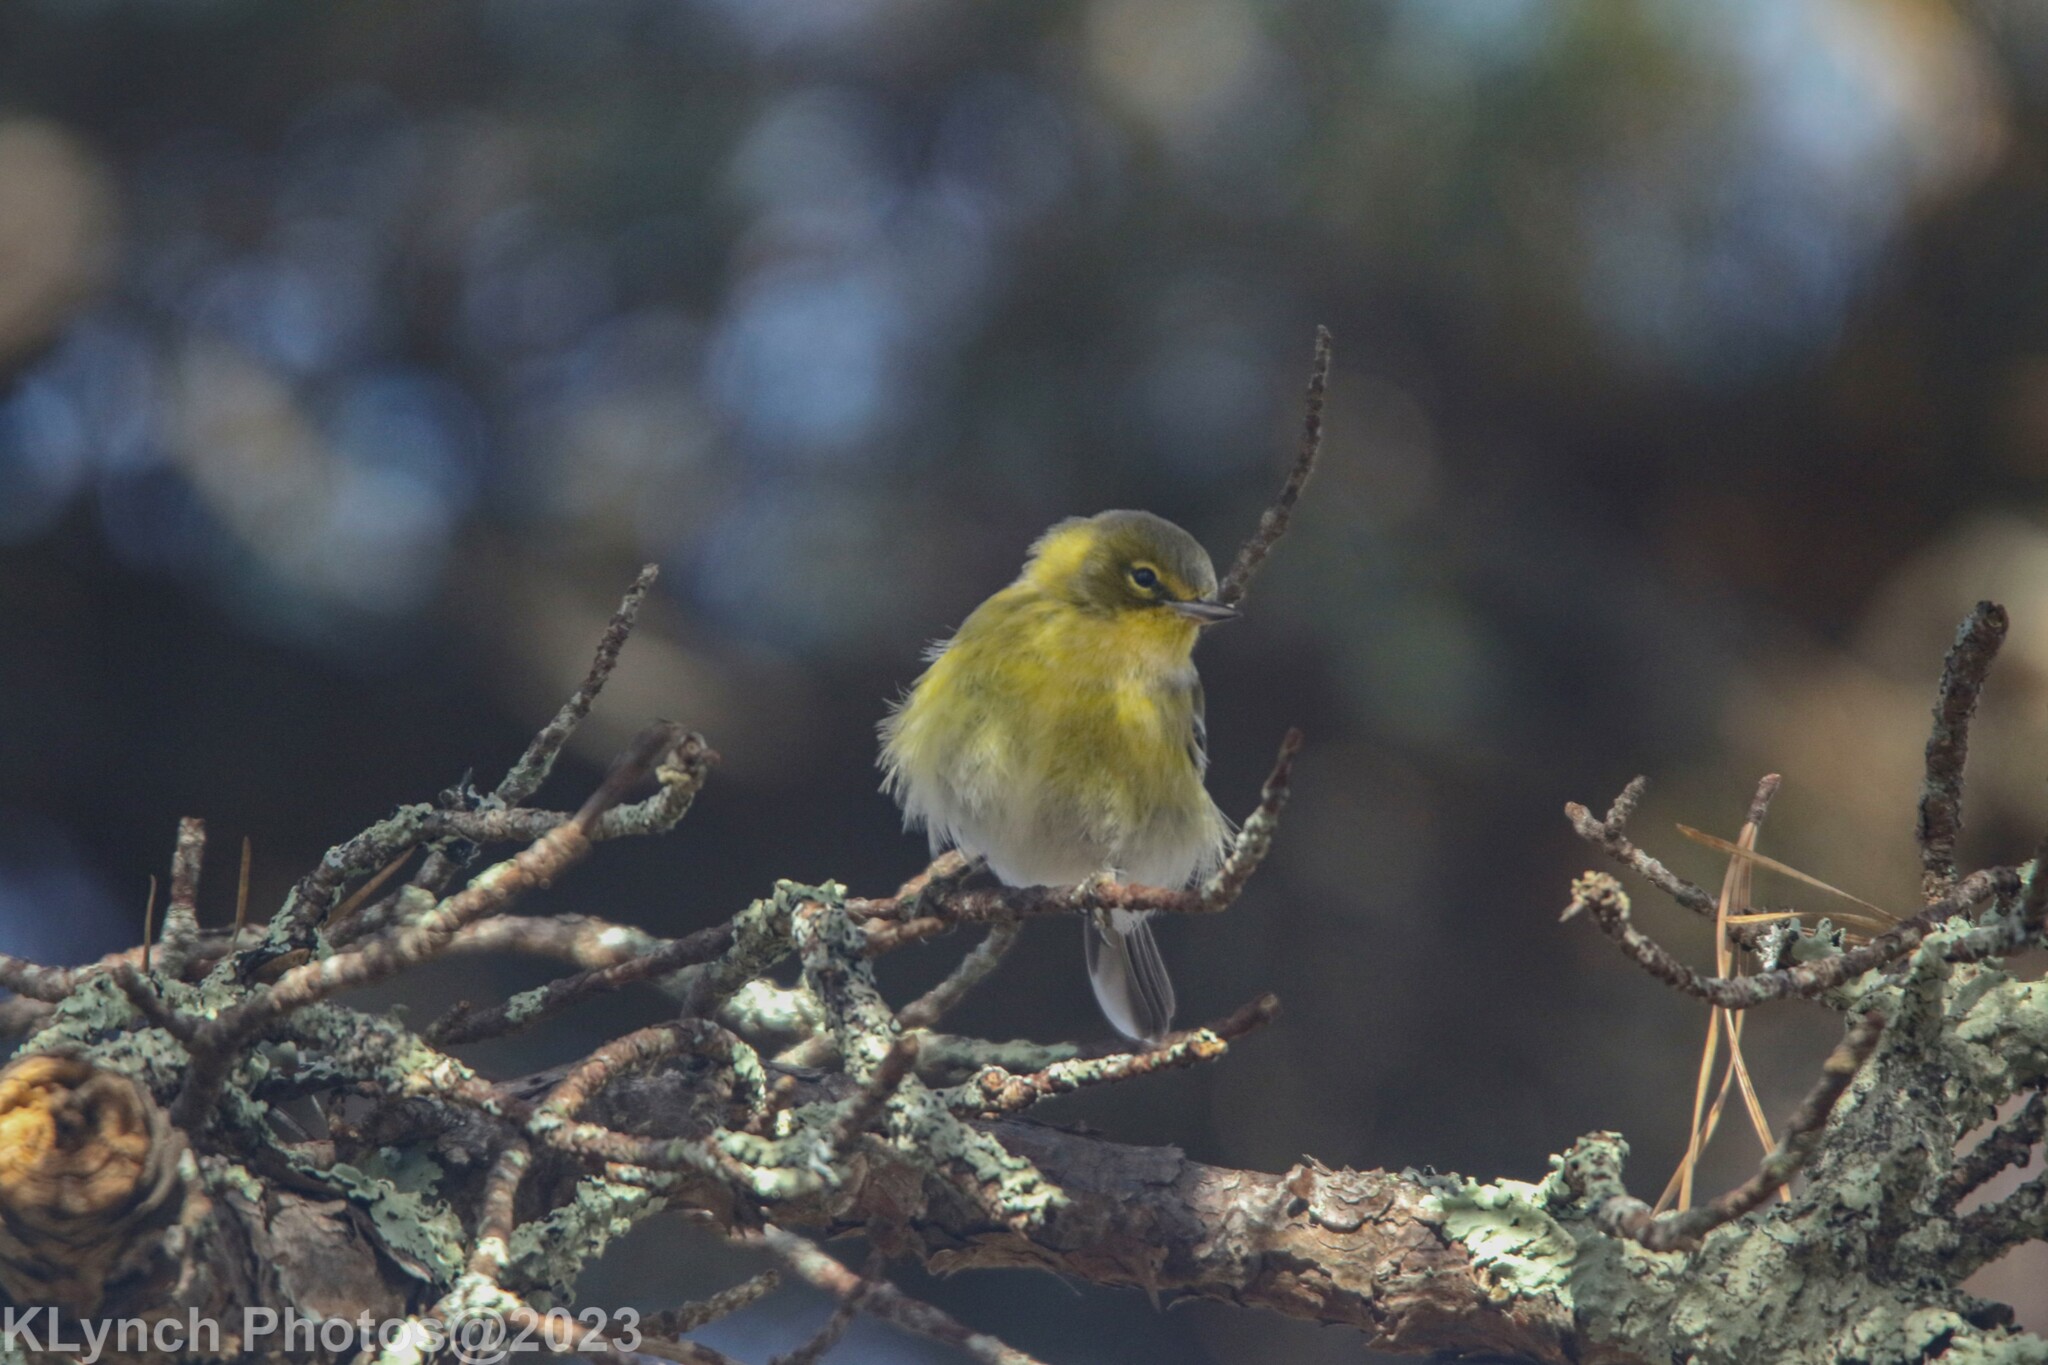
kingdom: Animalia
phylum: Chordata
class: Aves
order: Passeriformes
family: Parulidae
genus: Setophaga
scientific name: Setophaga pinus
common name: Pine warbler
